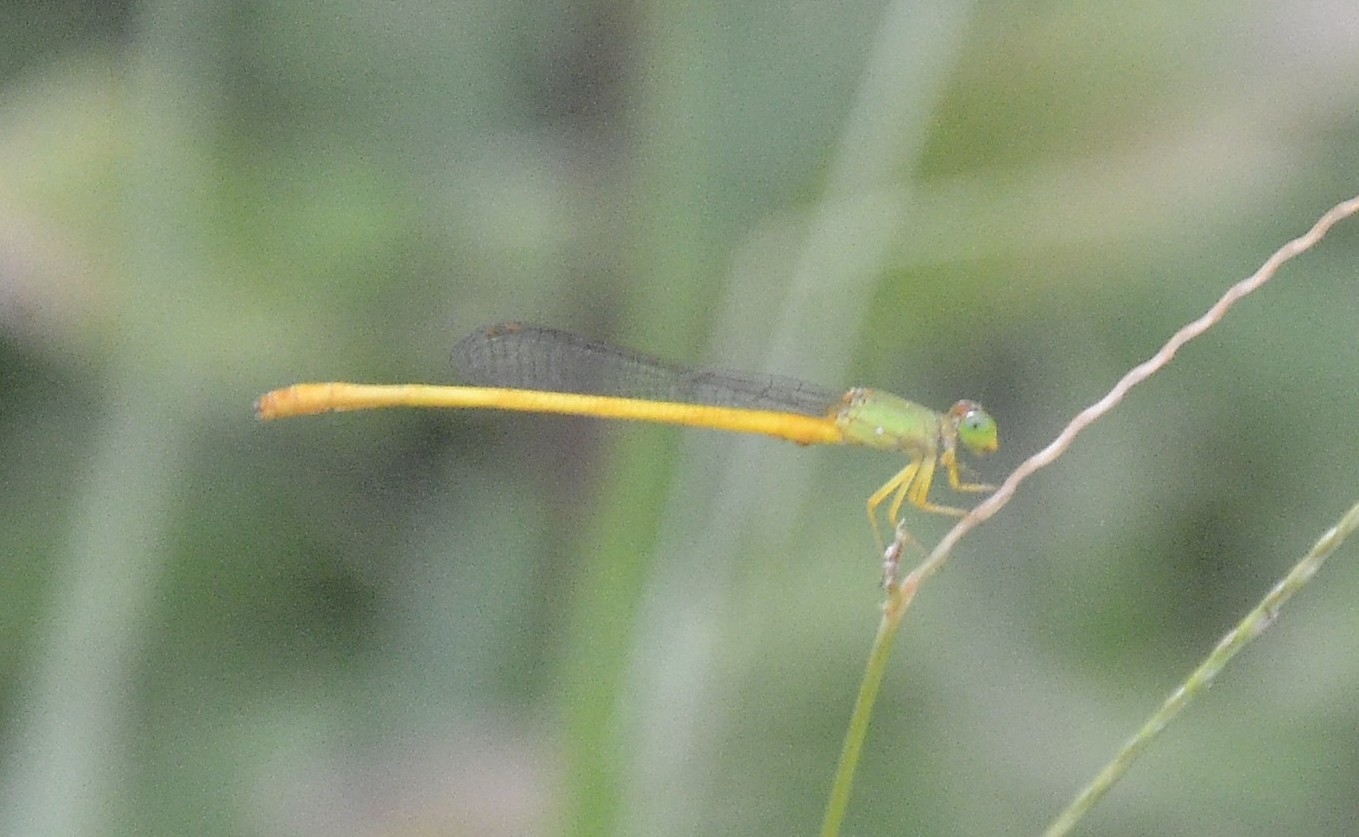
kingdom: Animalia
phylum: Arthropoda
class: Insecta
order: Odonata
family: Coenagrionidae
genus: Ceriagrion
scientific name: Ceriagrion coromandelianum
